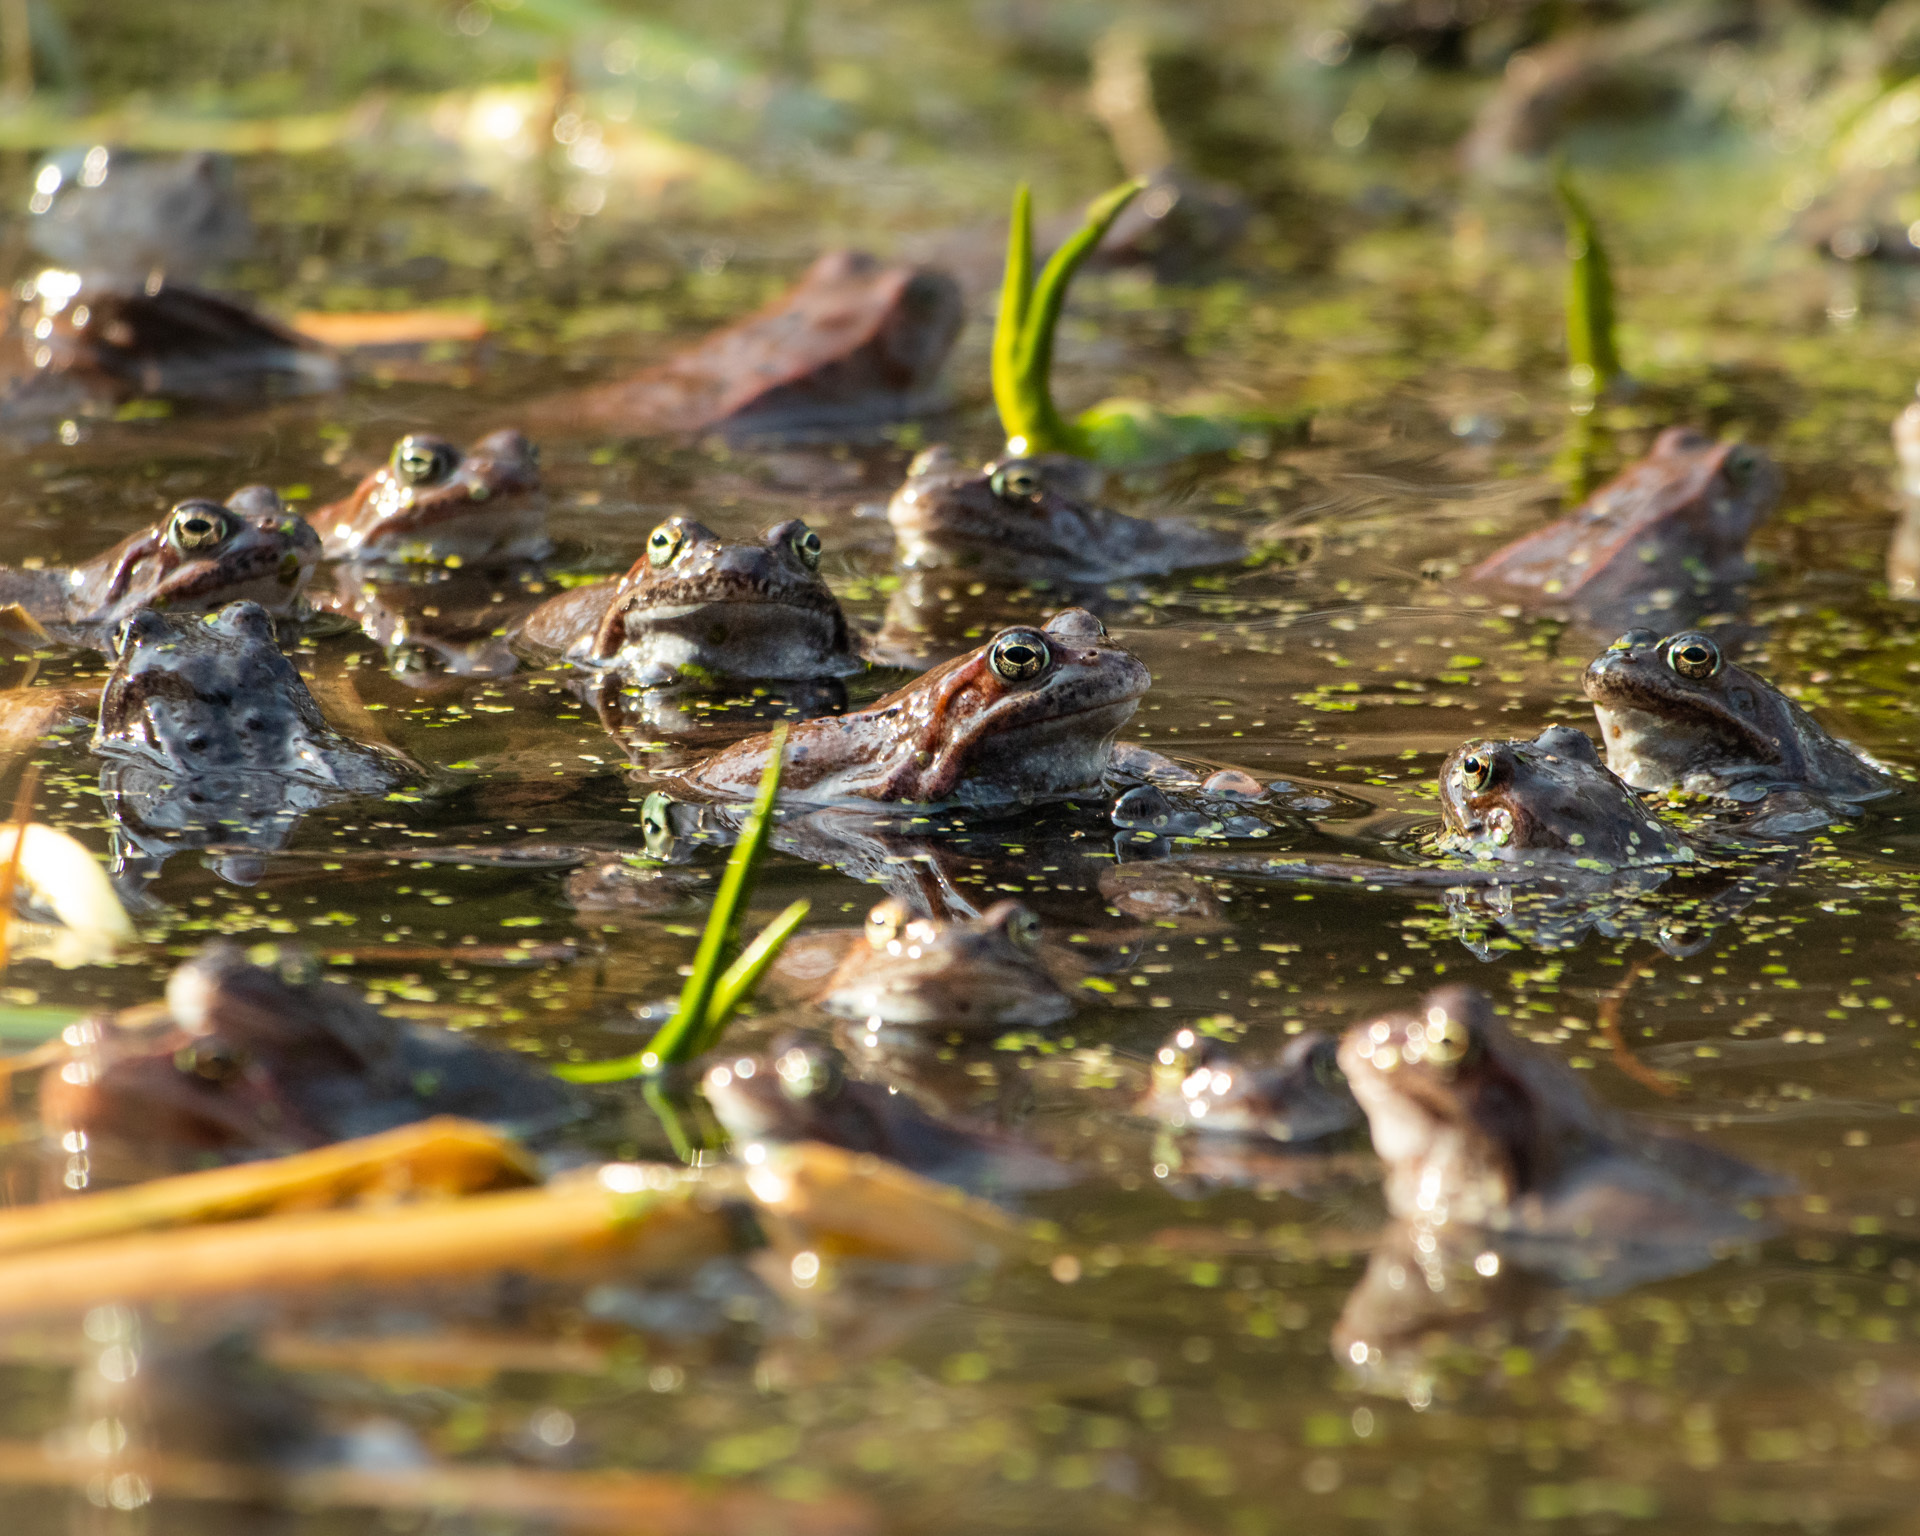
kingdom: Animalia
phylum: Chordata
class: Amphibia
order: Anura
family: Ranidae
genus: Rana
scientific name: Rana temporaria
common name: Common frog
